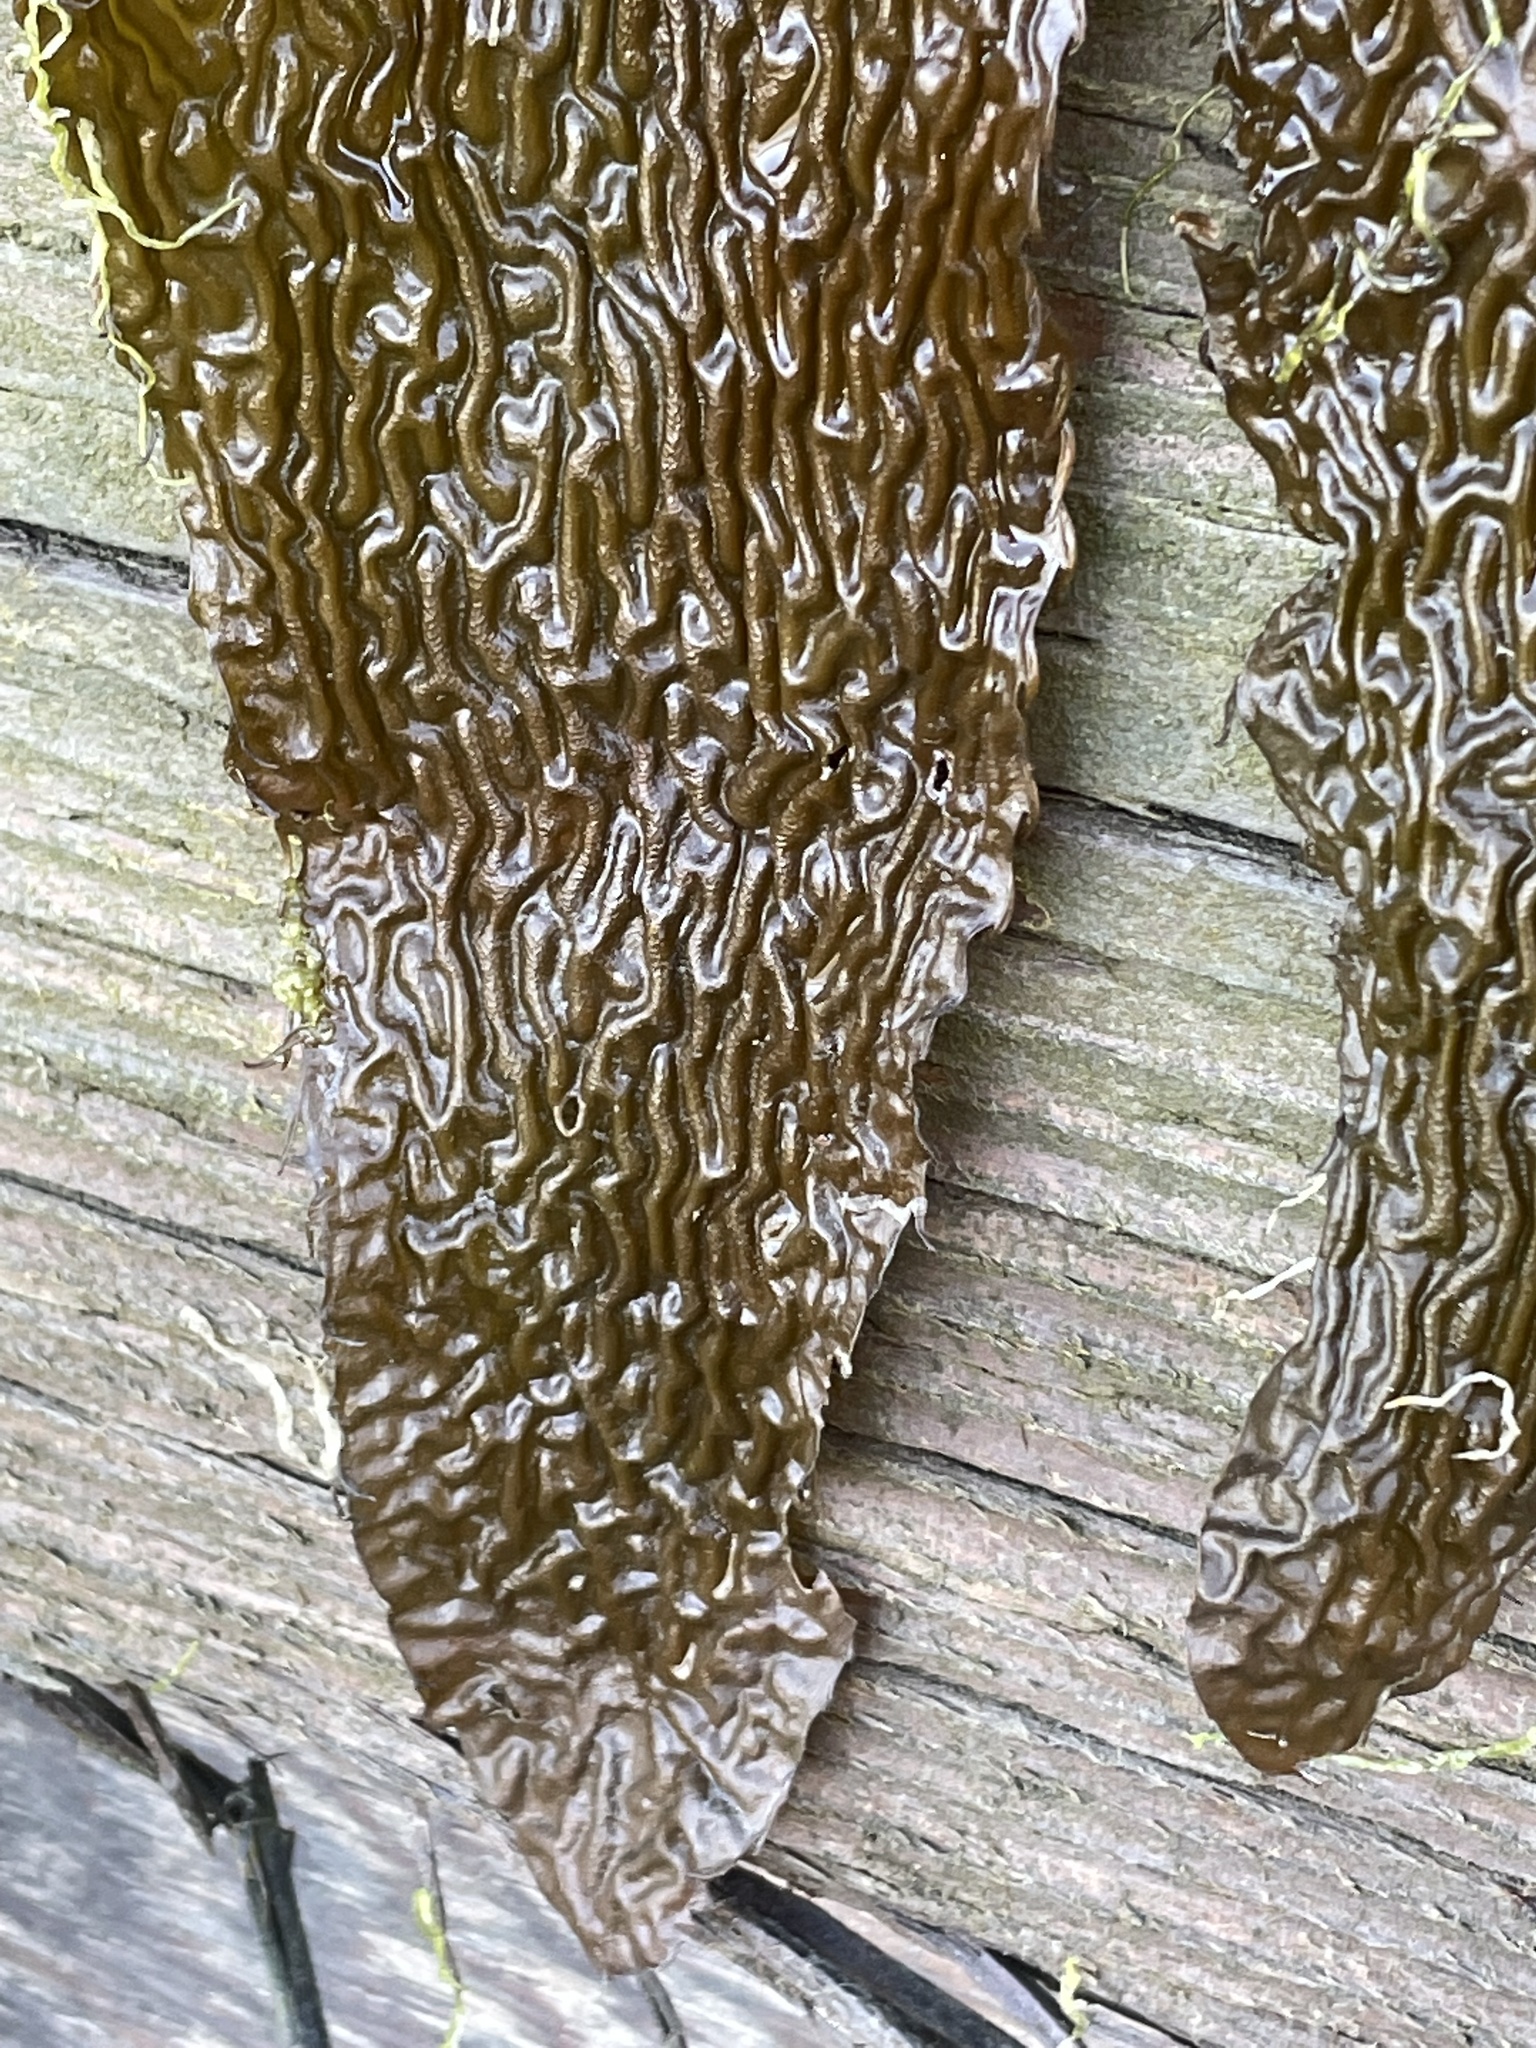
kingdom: Chromista
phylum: Ochrophyta
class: Phaeophyceae
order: Laminariales
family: Laminariaceae
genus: Macrocystis
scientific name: Macrocystis pyrifera
